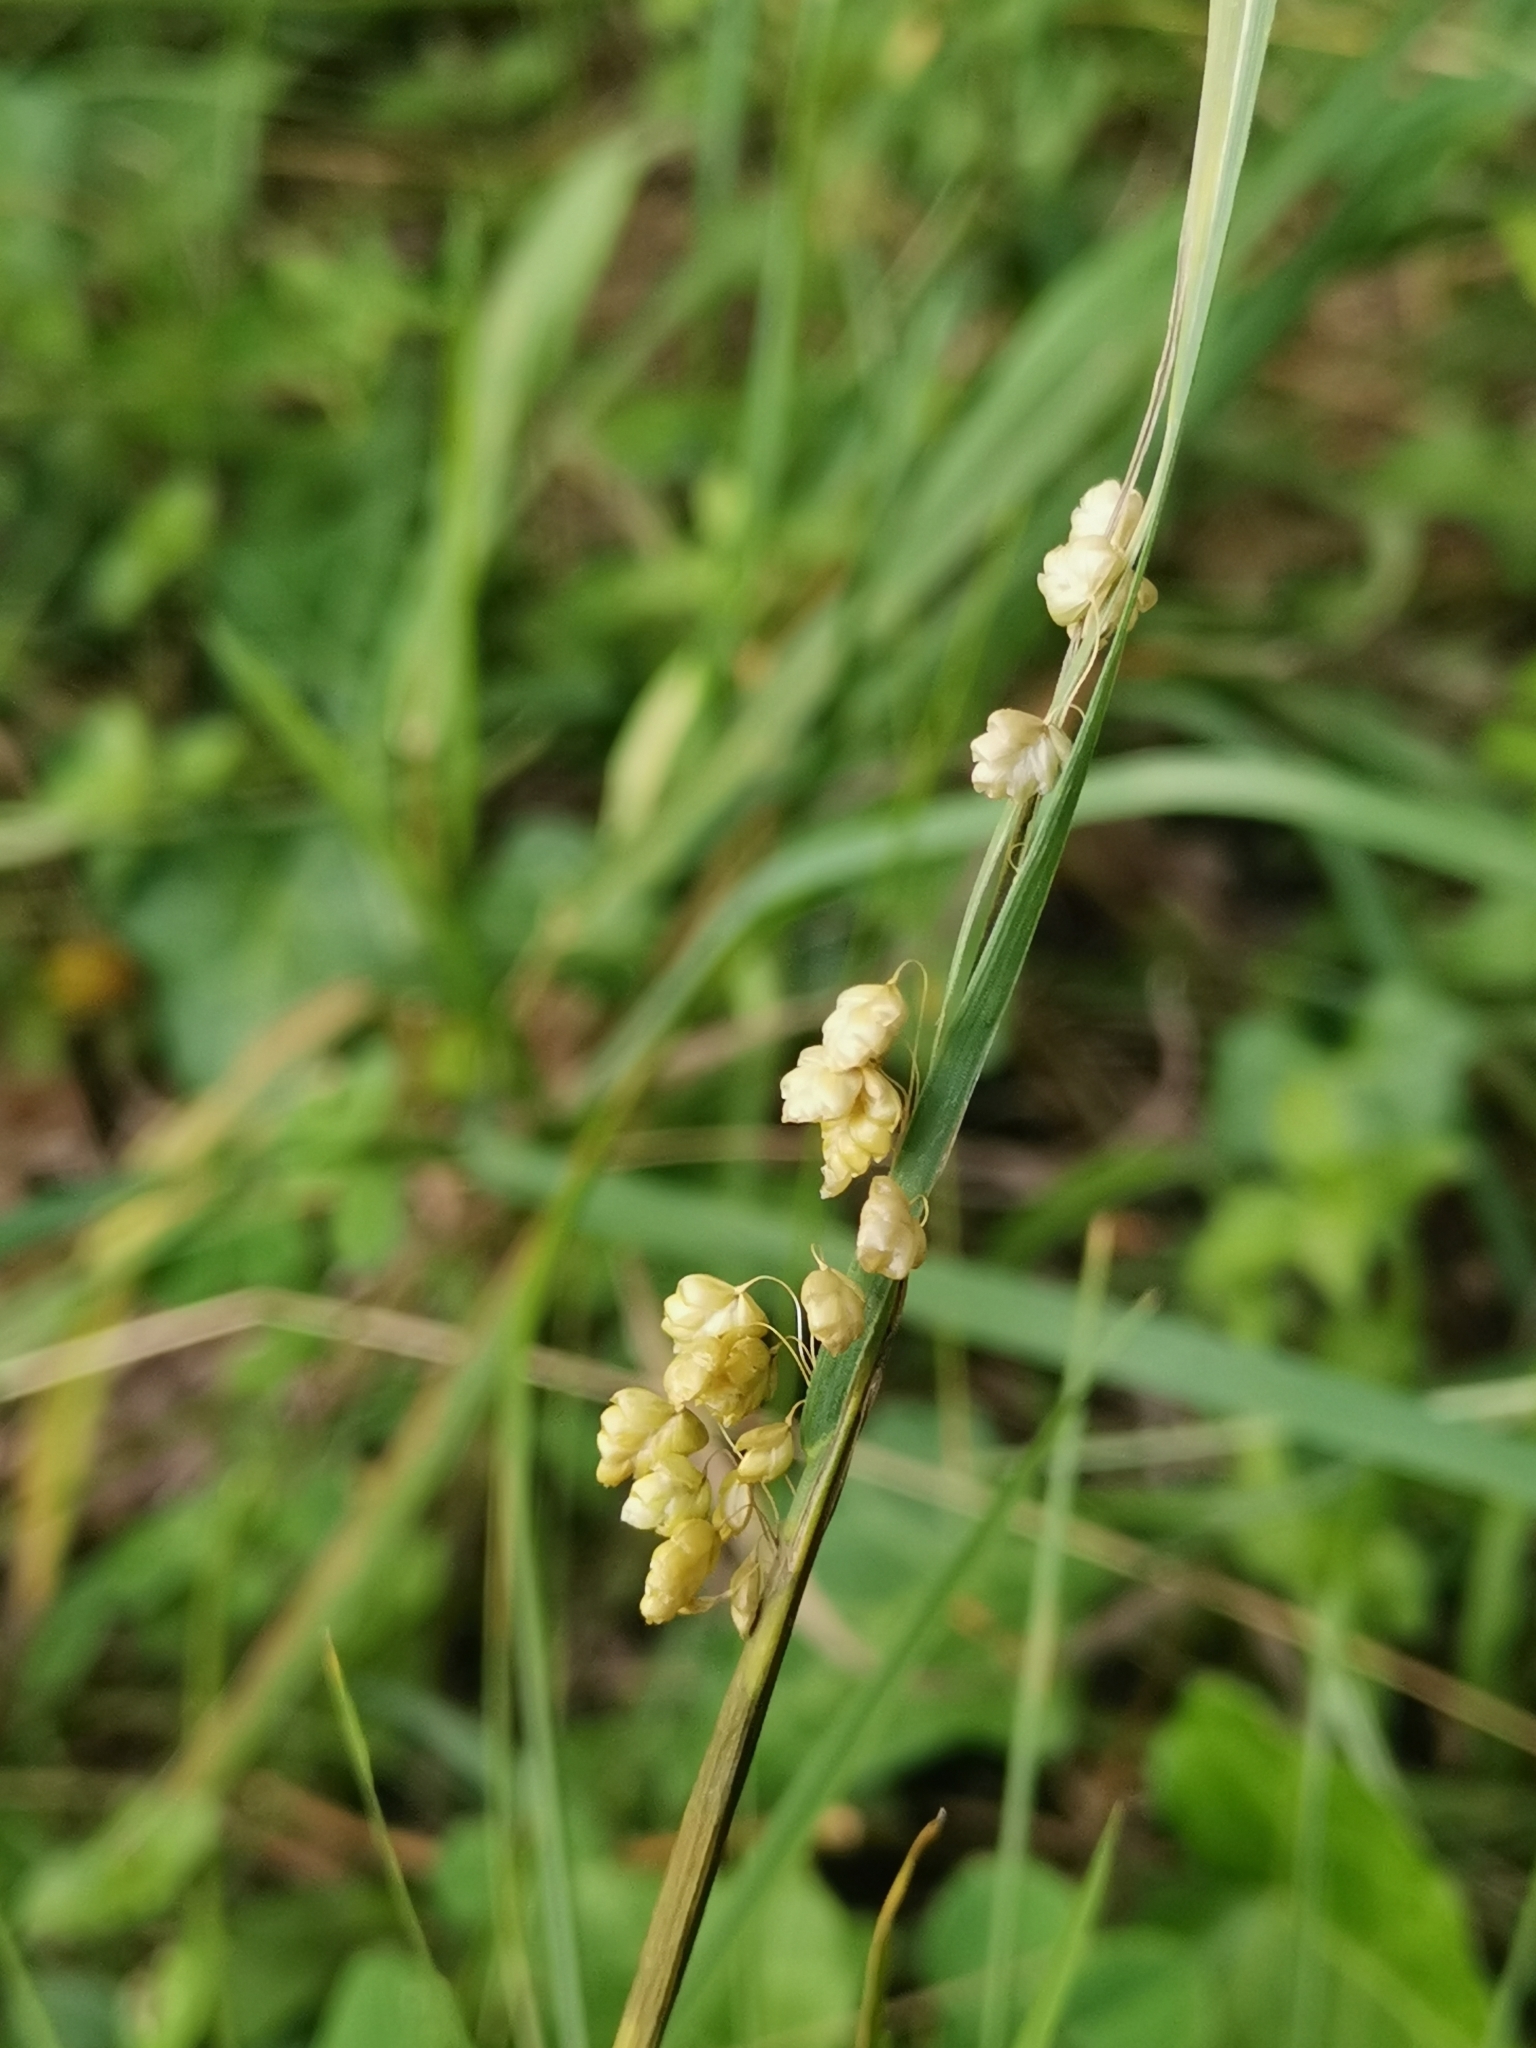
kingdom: Plantae
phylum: Tracheophyta
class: Liliopsida
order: Poales
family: Poaceae
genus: Briza
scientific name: Briza media
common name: Quaking grass
